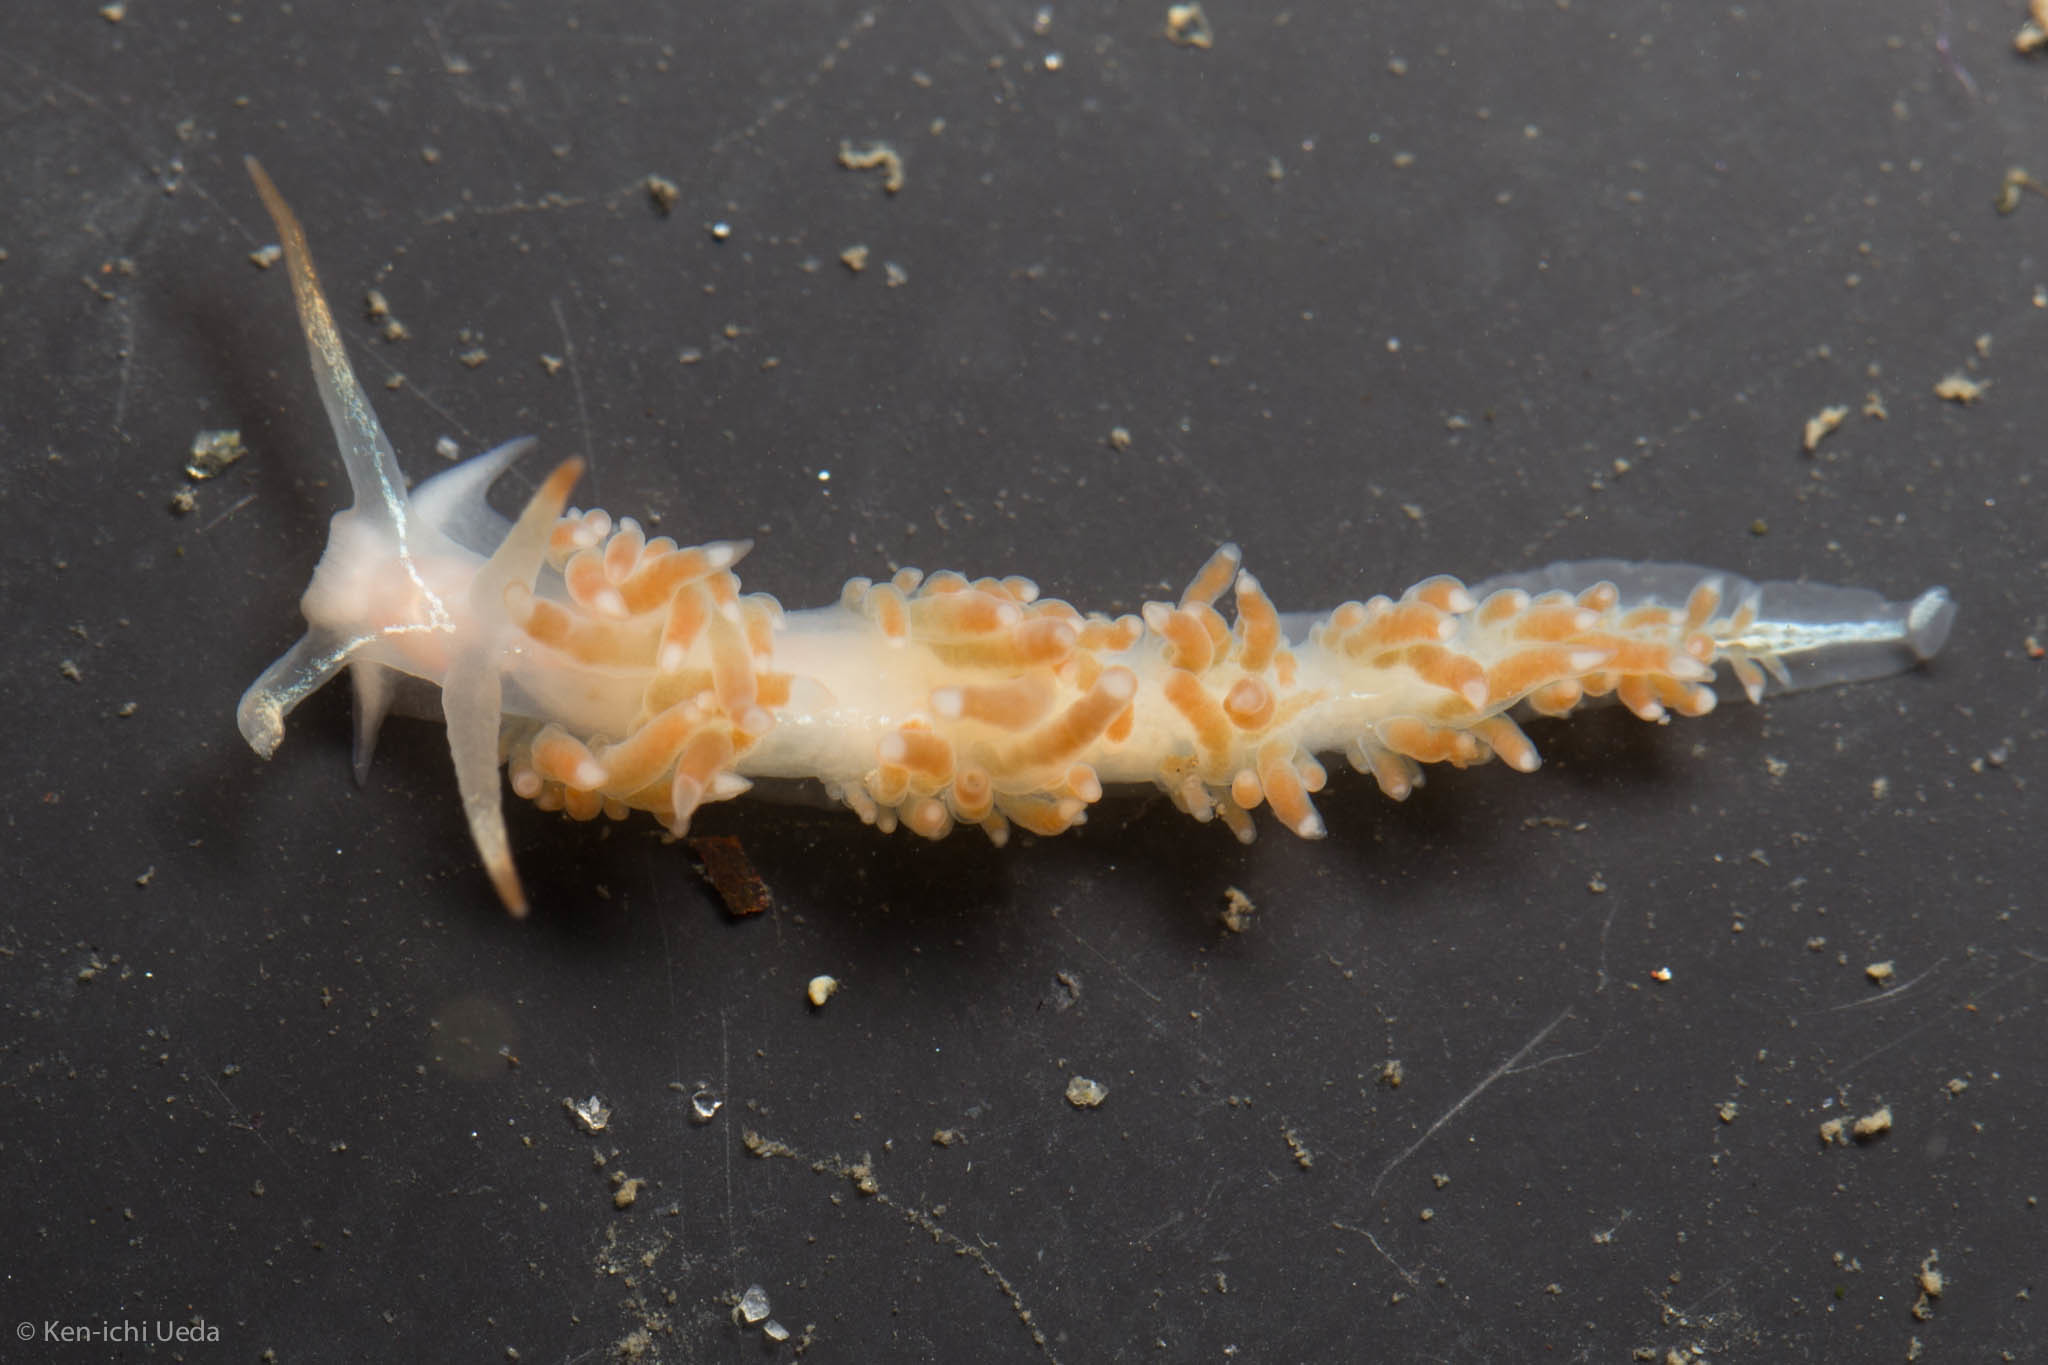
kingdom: Animalia
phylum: Mollusca
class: Gastropoda
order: Nudibranchia
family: Coryphellidae
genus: Coryphella
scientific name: Coryphella cooperi
